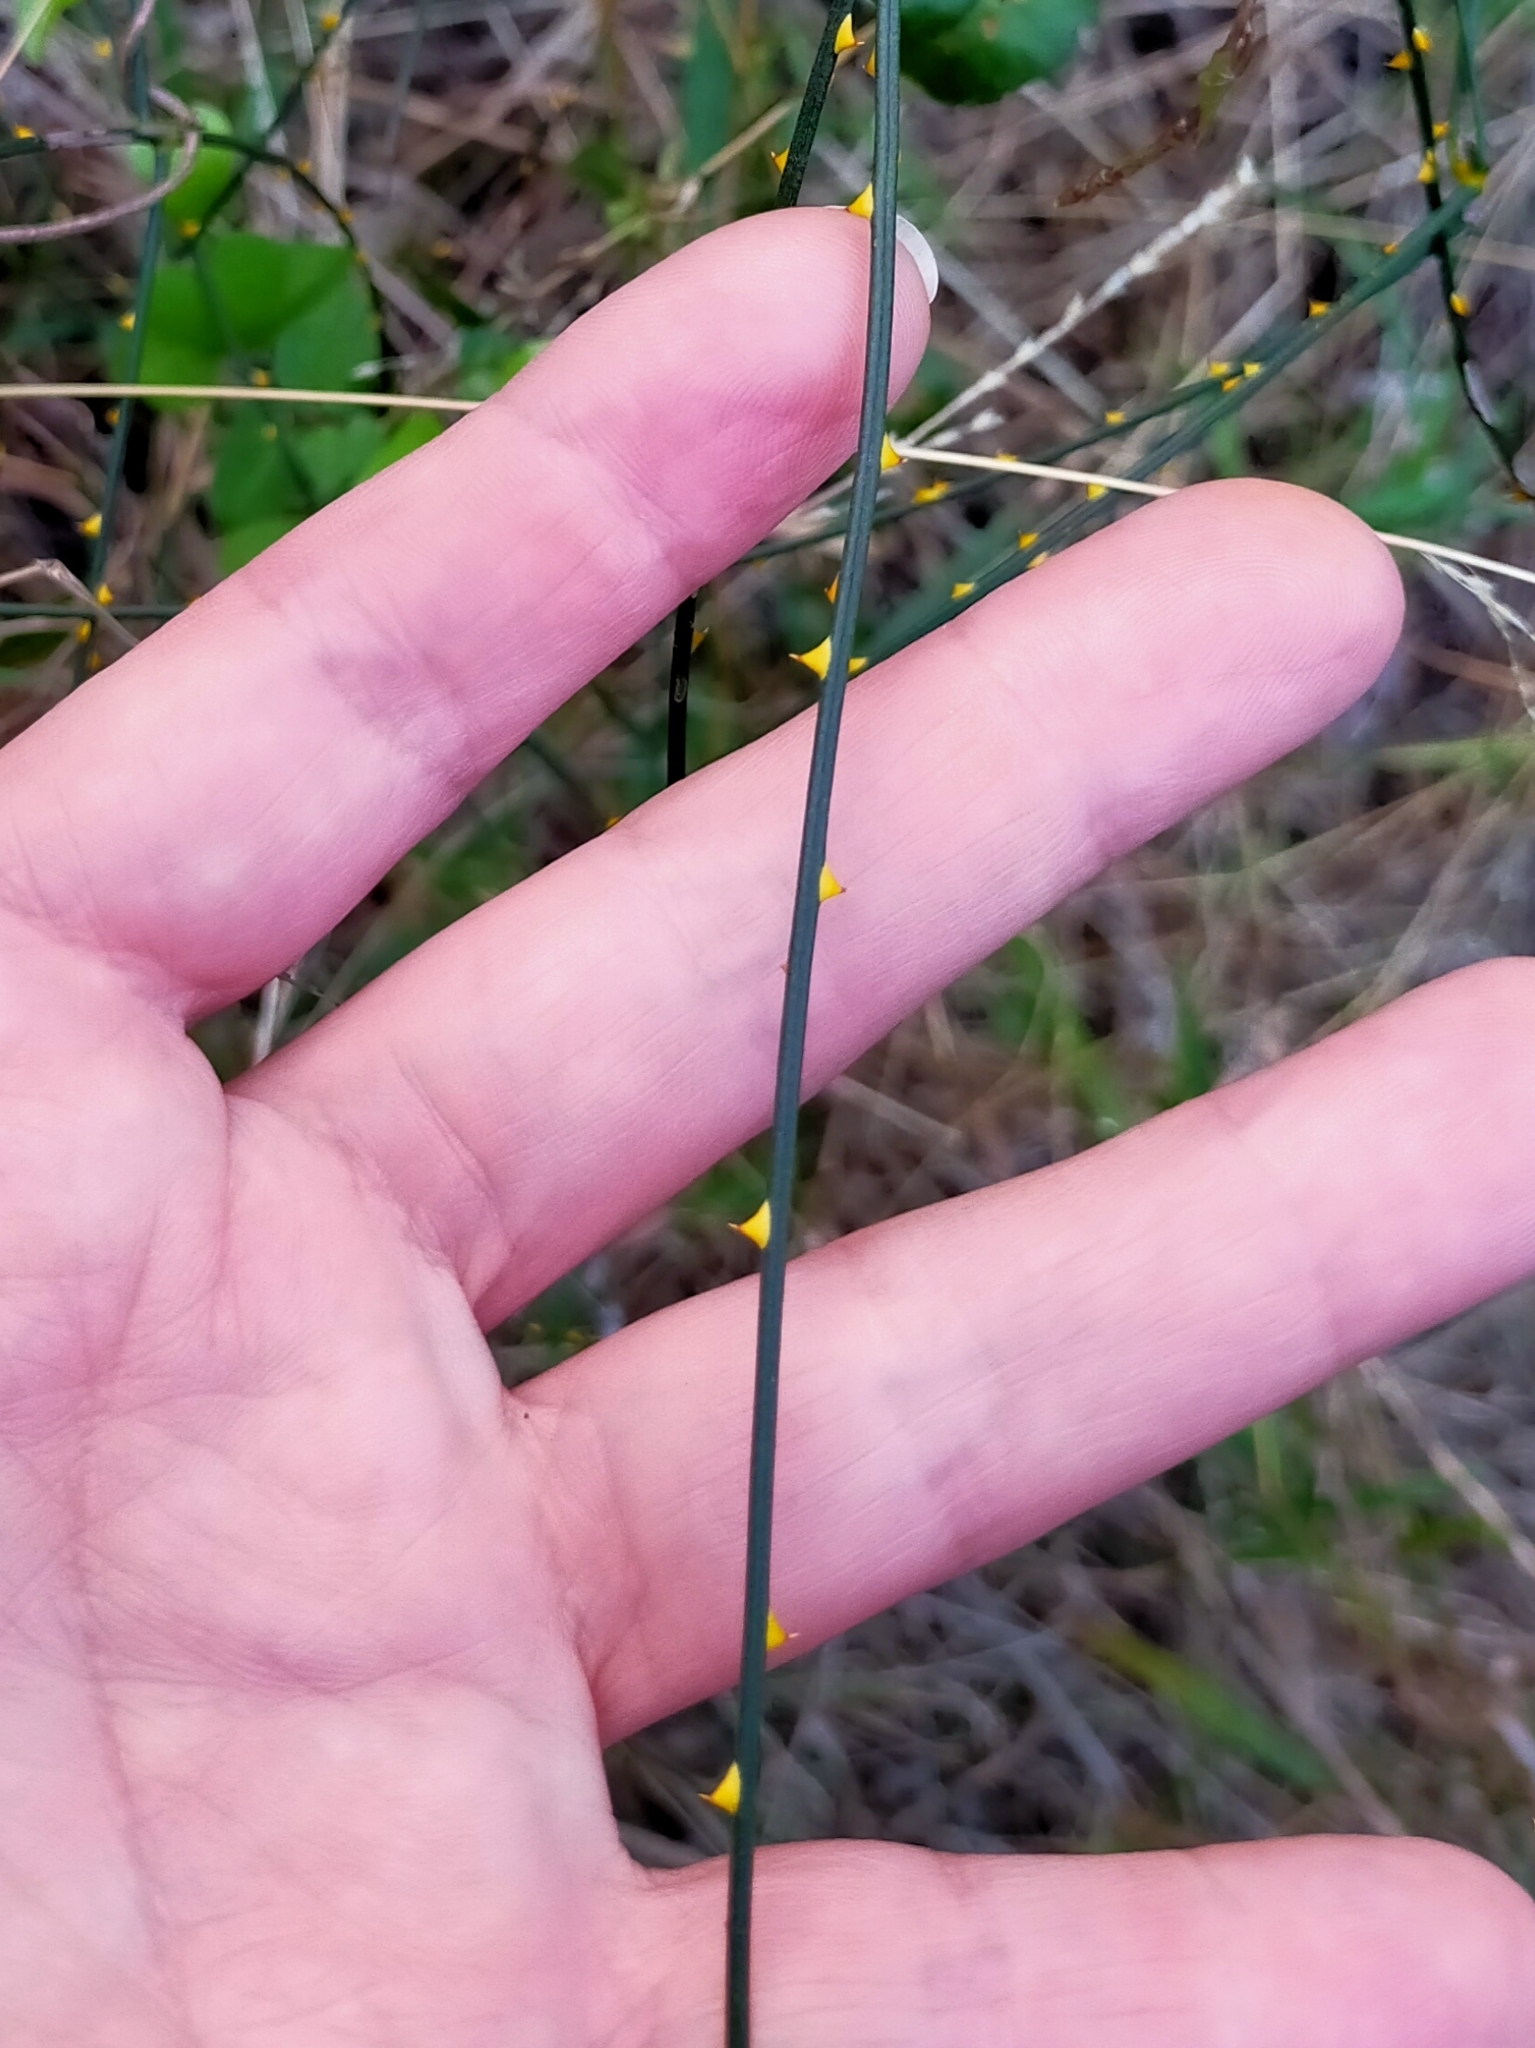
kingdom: Plantae
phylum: Tracheophyta
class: Magnoliopsida
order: Rosales
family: Rosaceae
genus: Rubus
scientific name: Rubus squarrosus
